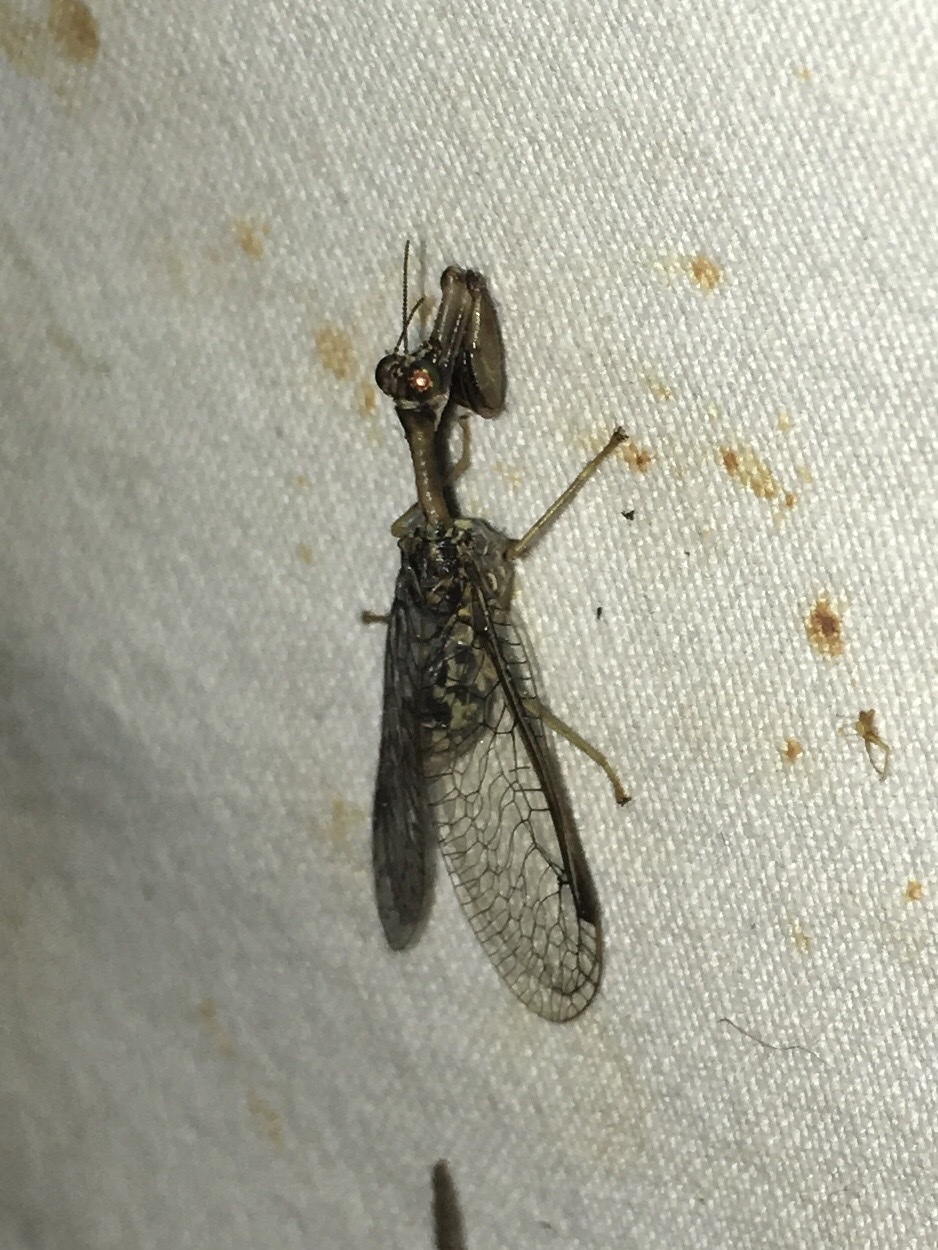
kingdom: Animalia
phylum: Arthropoda
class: Insecta
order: Neuroptera
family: Mantispidae
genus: Dicromantispa
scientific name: Dicromantispa sayi
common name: Say's mantidfly
